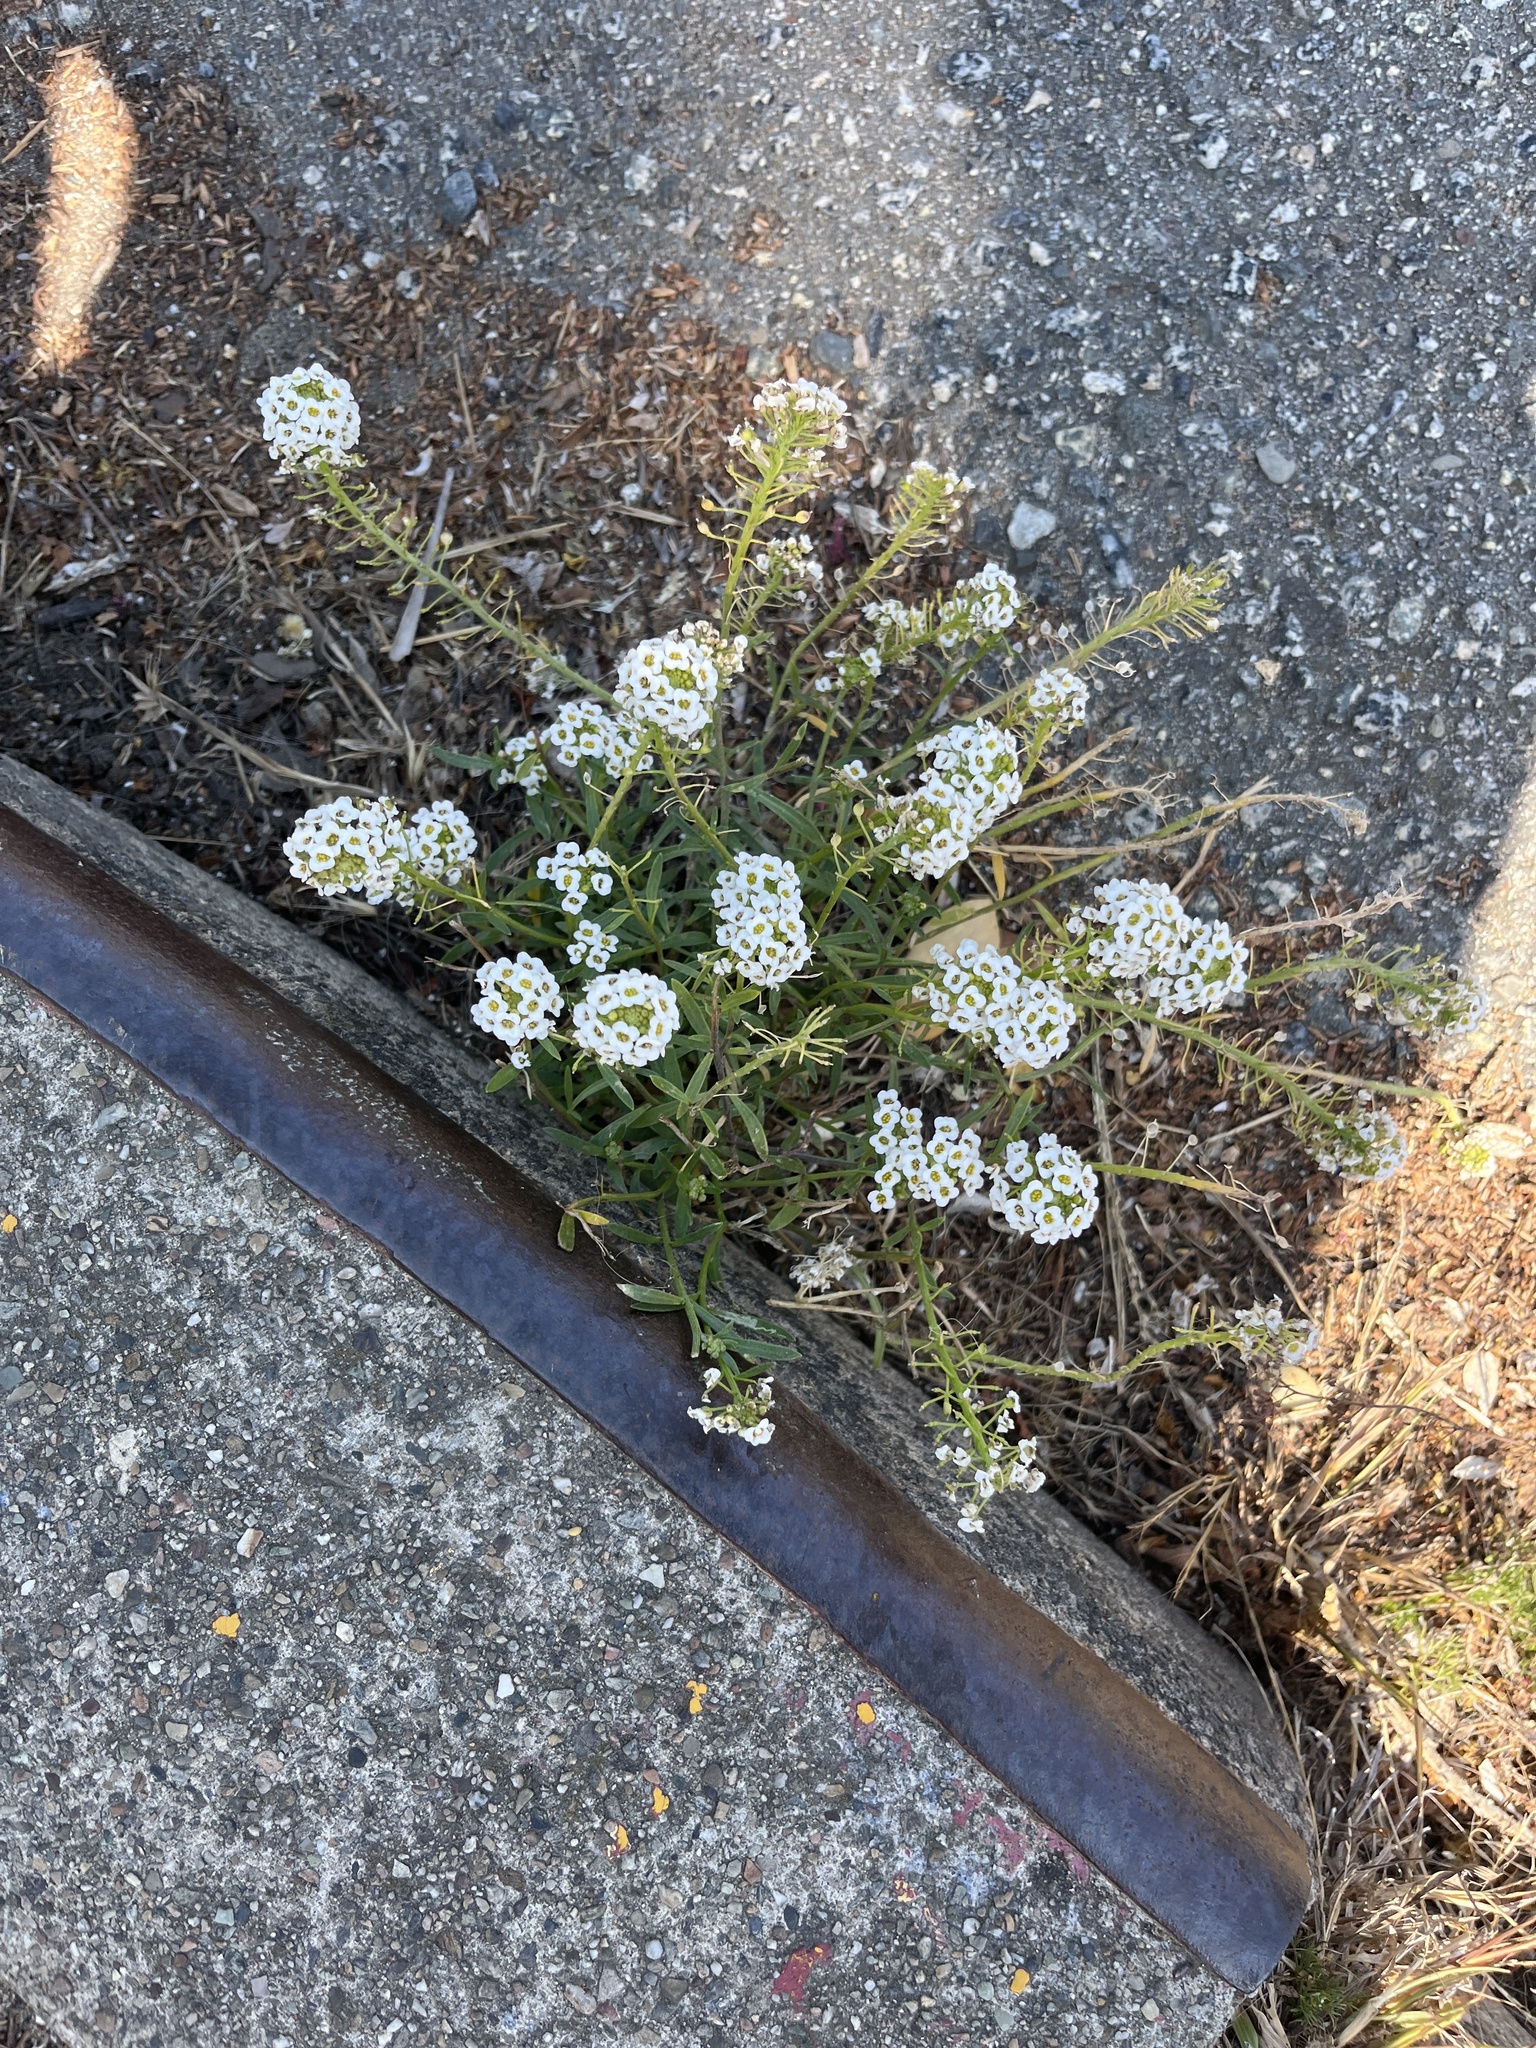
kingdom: Plantae
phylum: Tracheophyta
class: Magnoliopsida
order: Brassicales
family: Brassicaceae
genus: Lobularia
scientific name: Lobularia maritima
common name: Sweet alison
